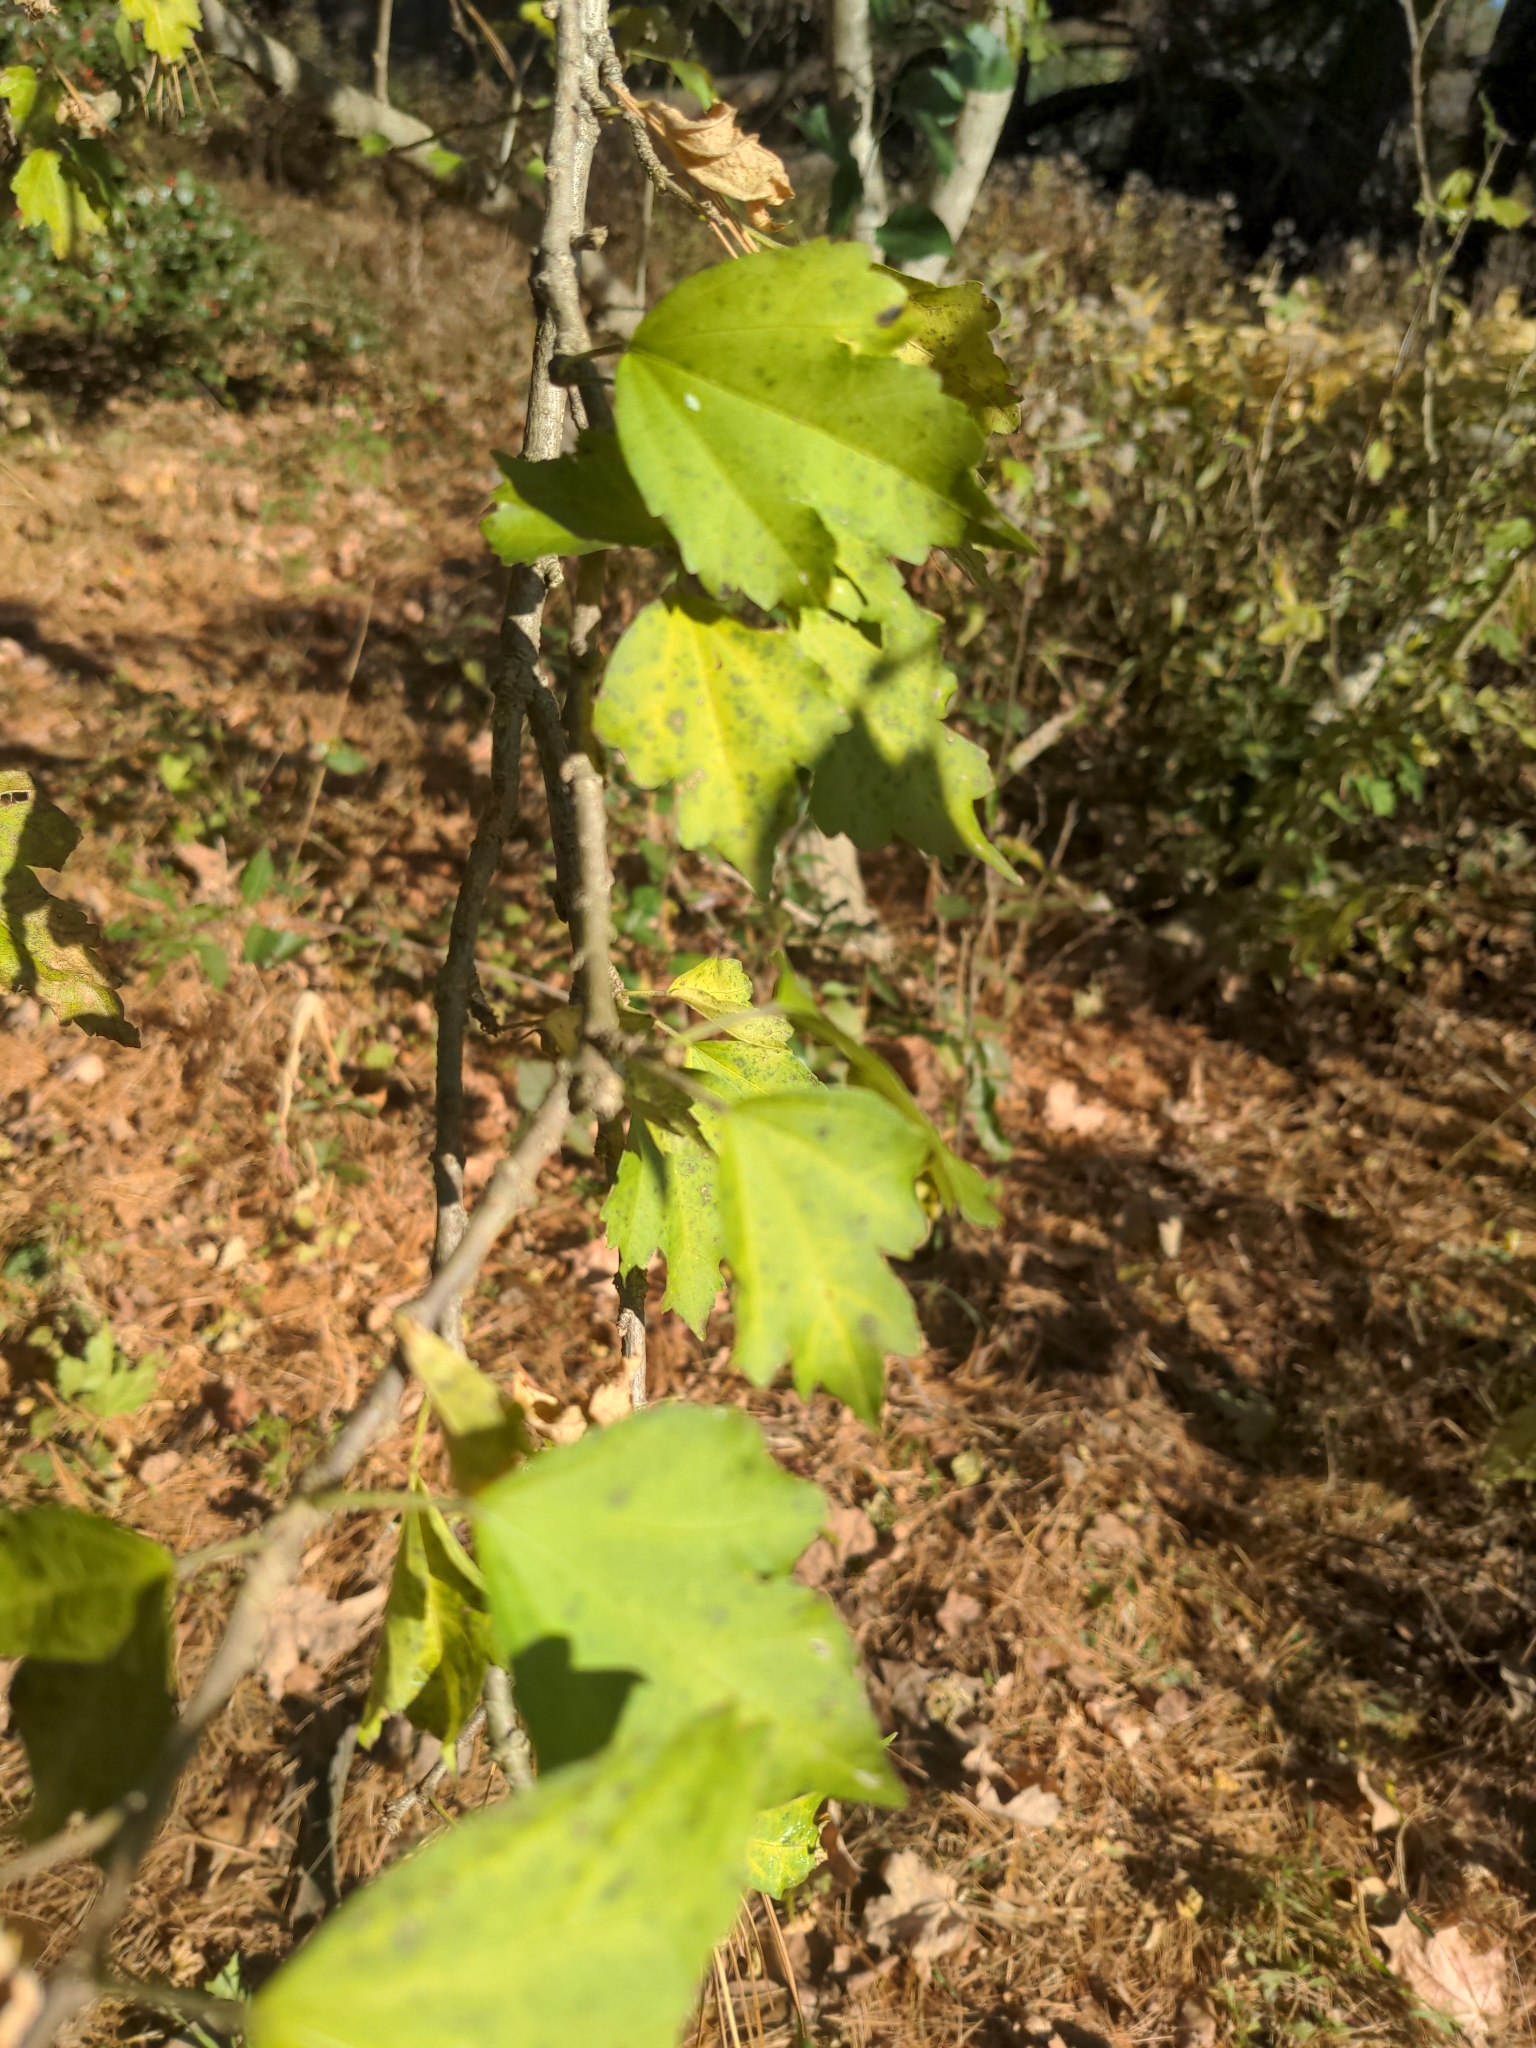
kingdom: Plantae
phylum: Tracheophyta
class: Magnoliopsida
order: Malvales
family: Malvaceae
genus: Hibiscus
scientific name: Hibiscus syriacus
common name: Syrian ketmia
